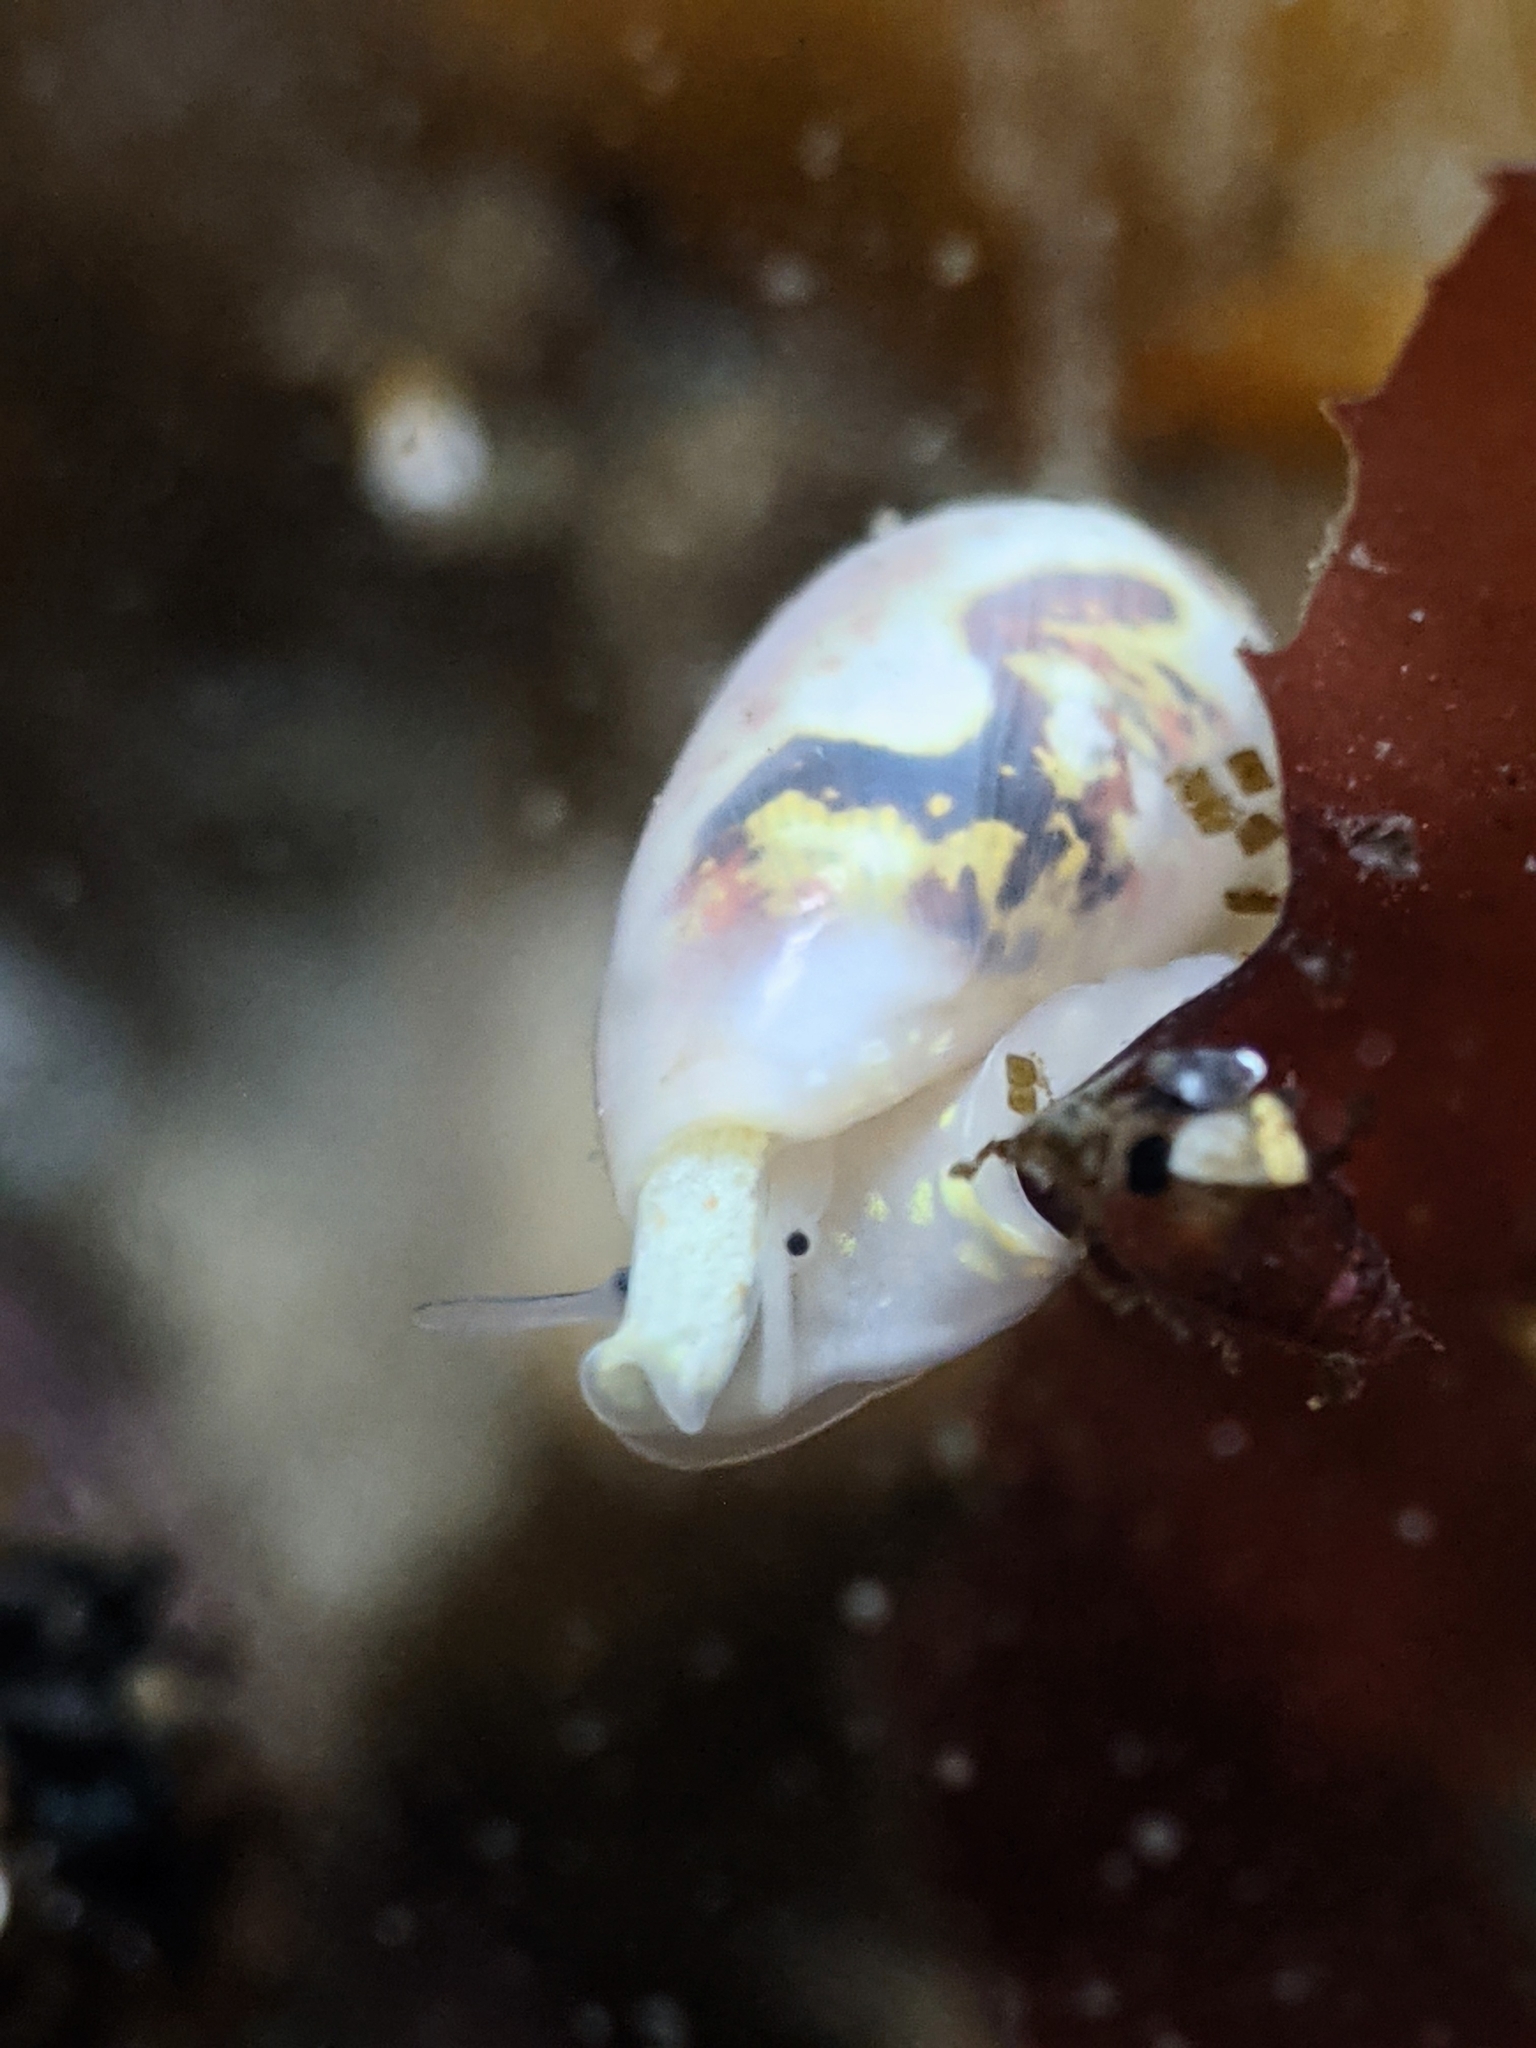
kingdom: Animalia
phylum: Mollusca
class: Gastropoda
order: Neogastropoda
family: Cystiscidae
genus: Plesiocystiscus
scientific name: Plesiocystiscus jewettii
